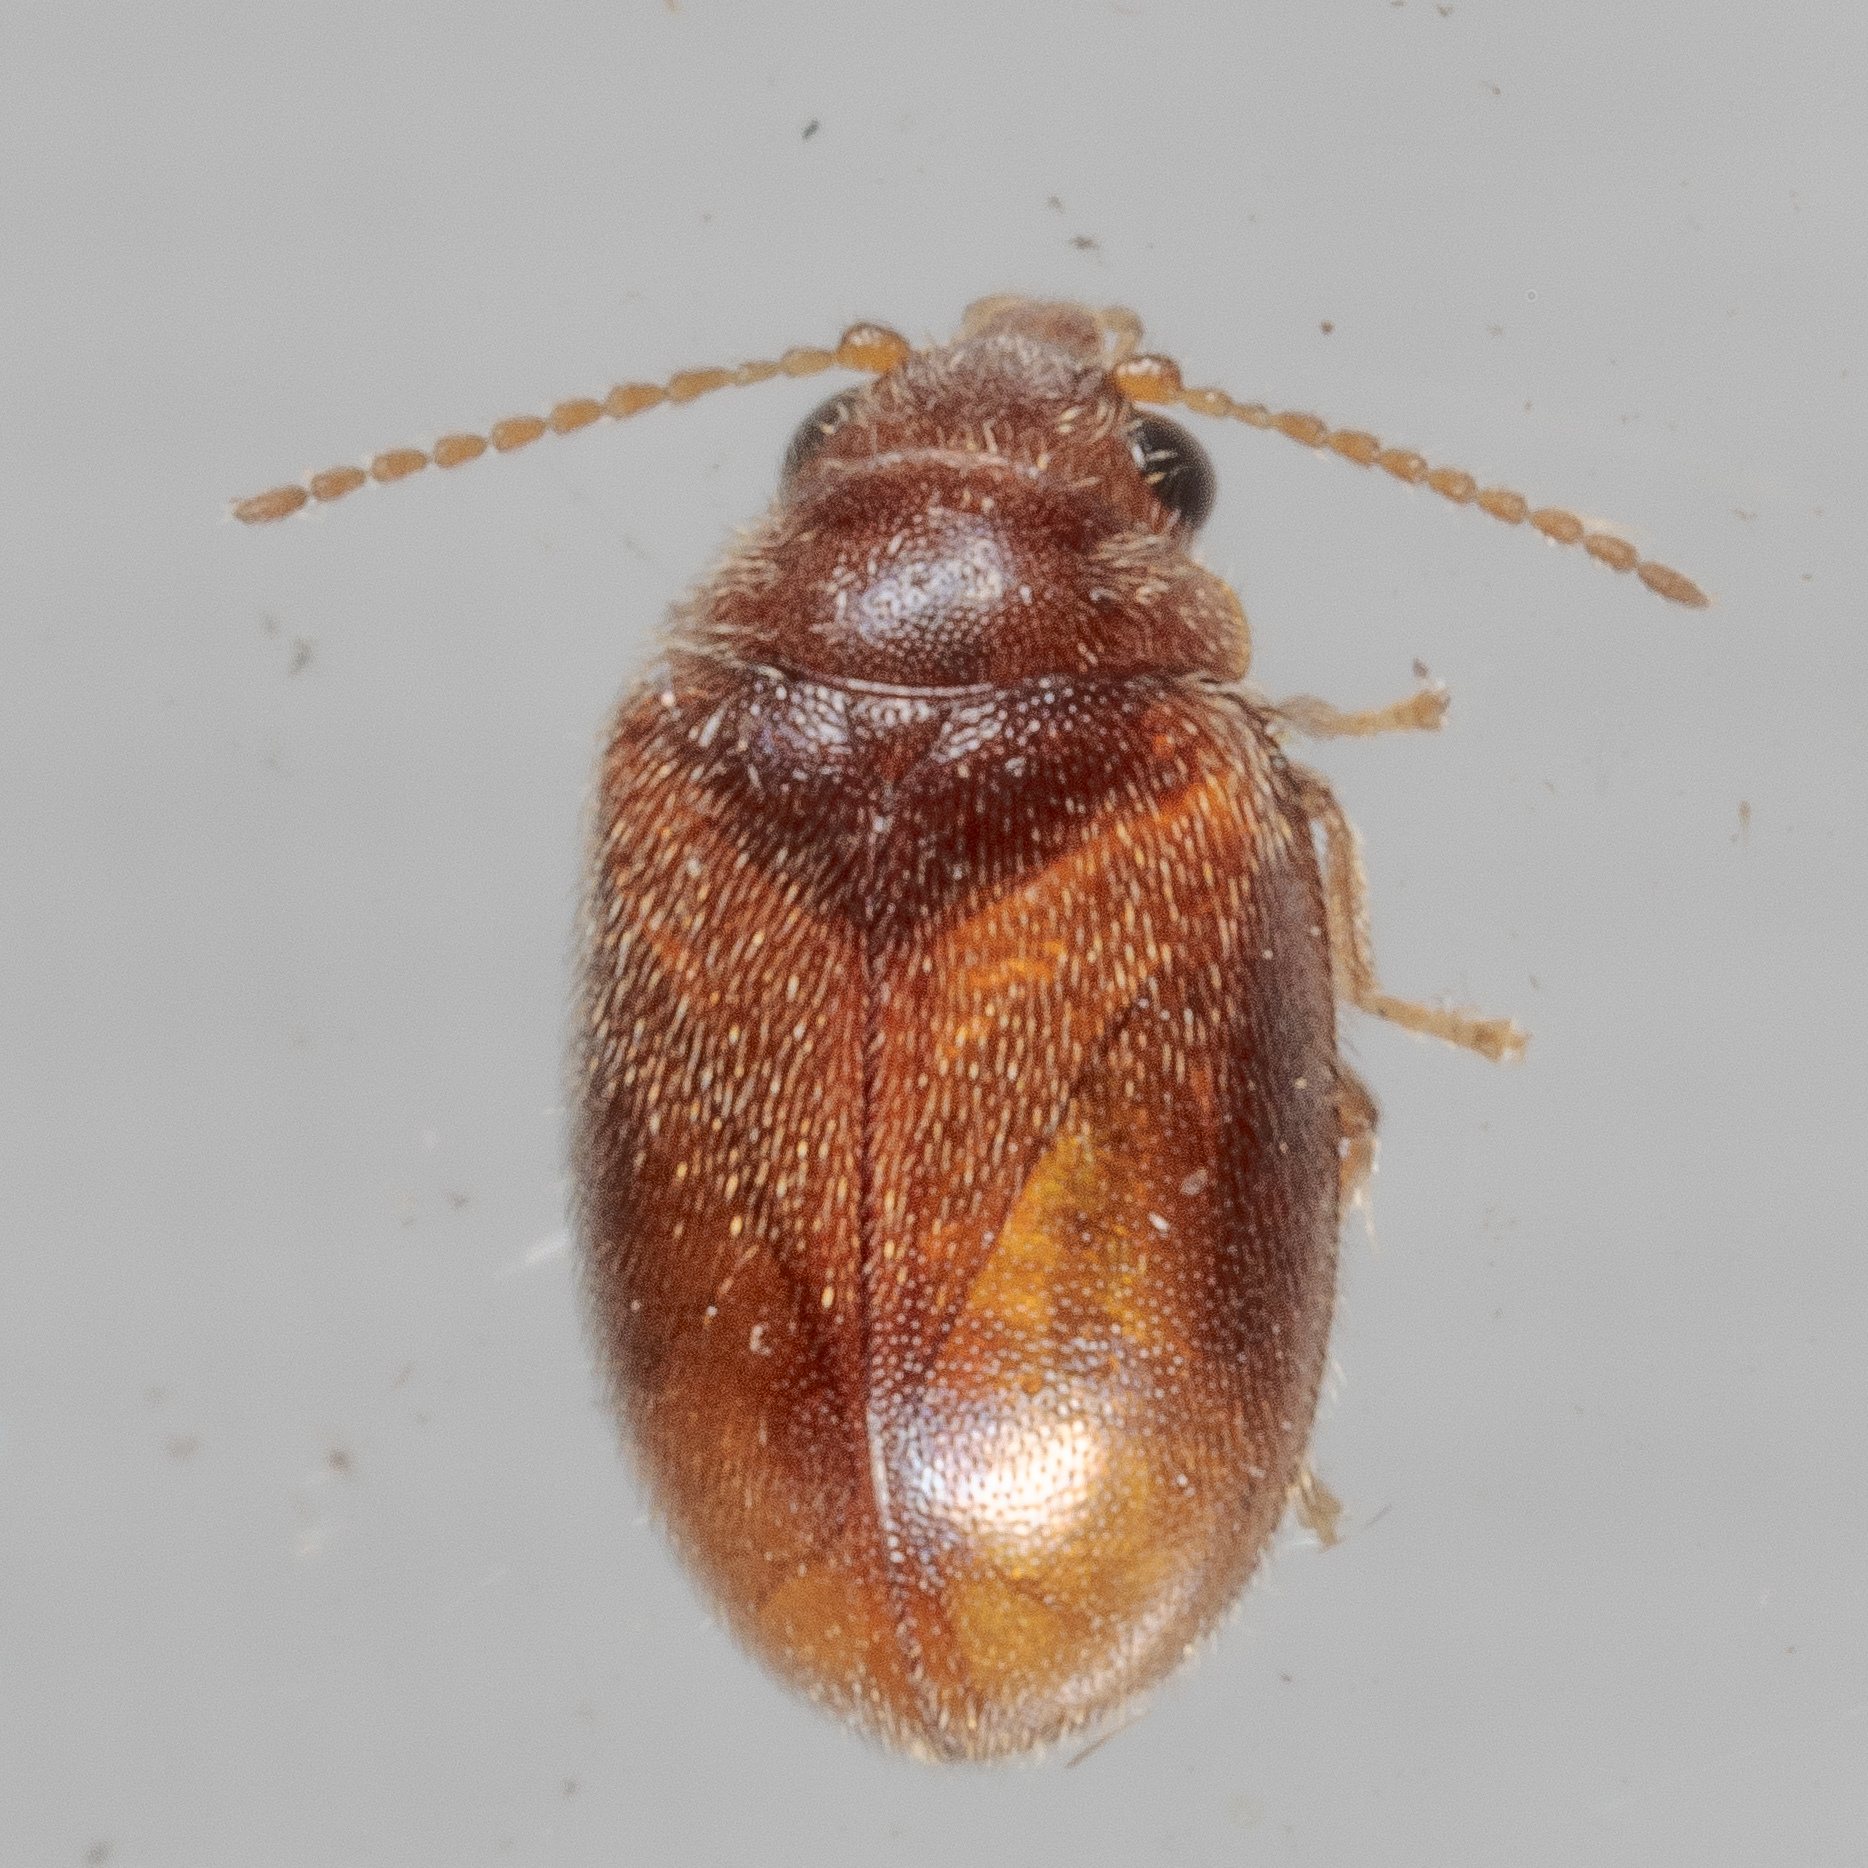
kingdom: Animalia
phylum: Arthropoda
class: Insecta
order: Coleoptera
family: Scirtidae
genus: Contacyphon
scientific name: Contacyphon
